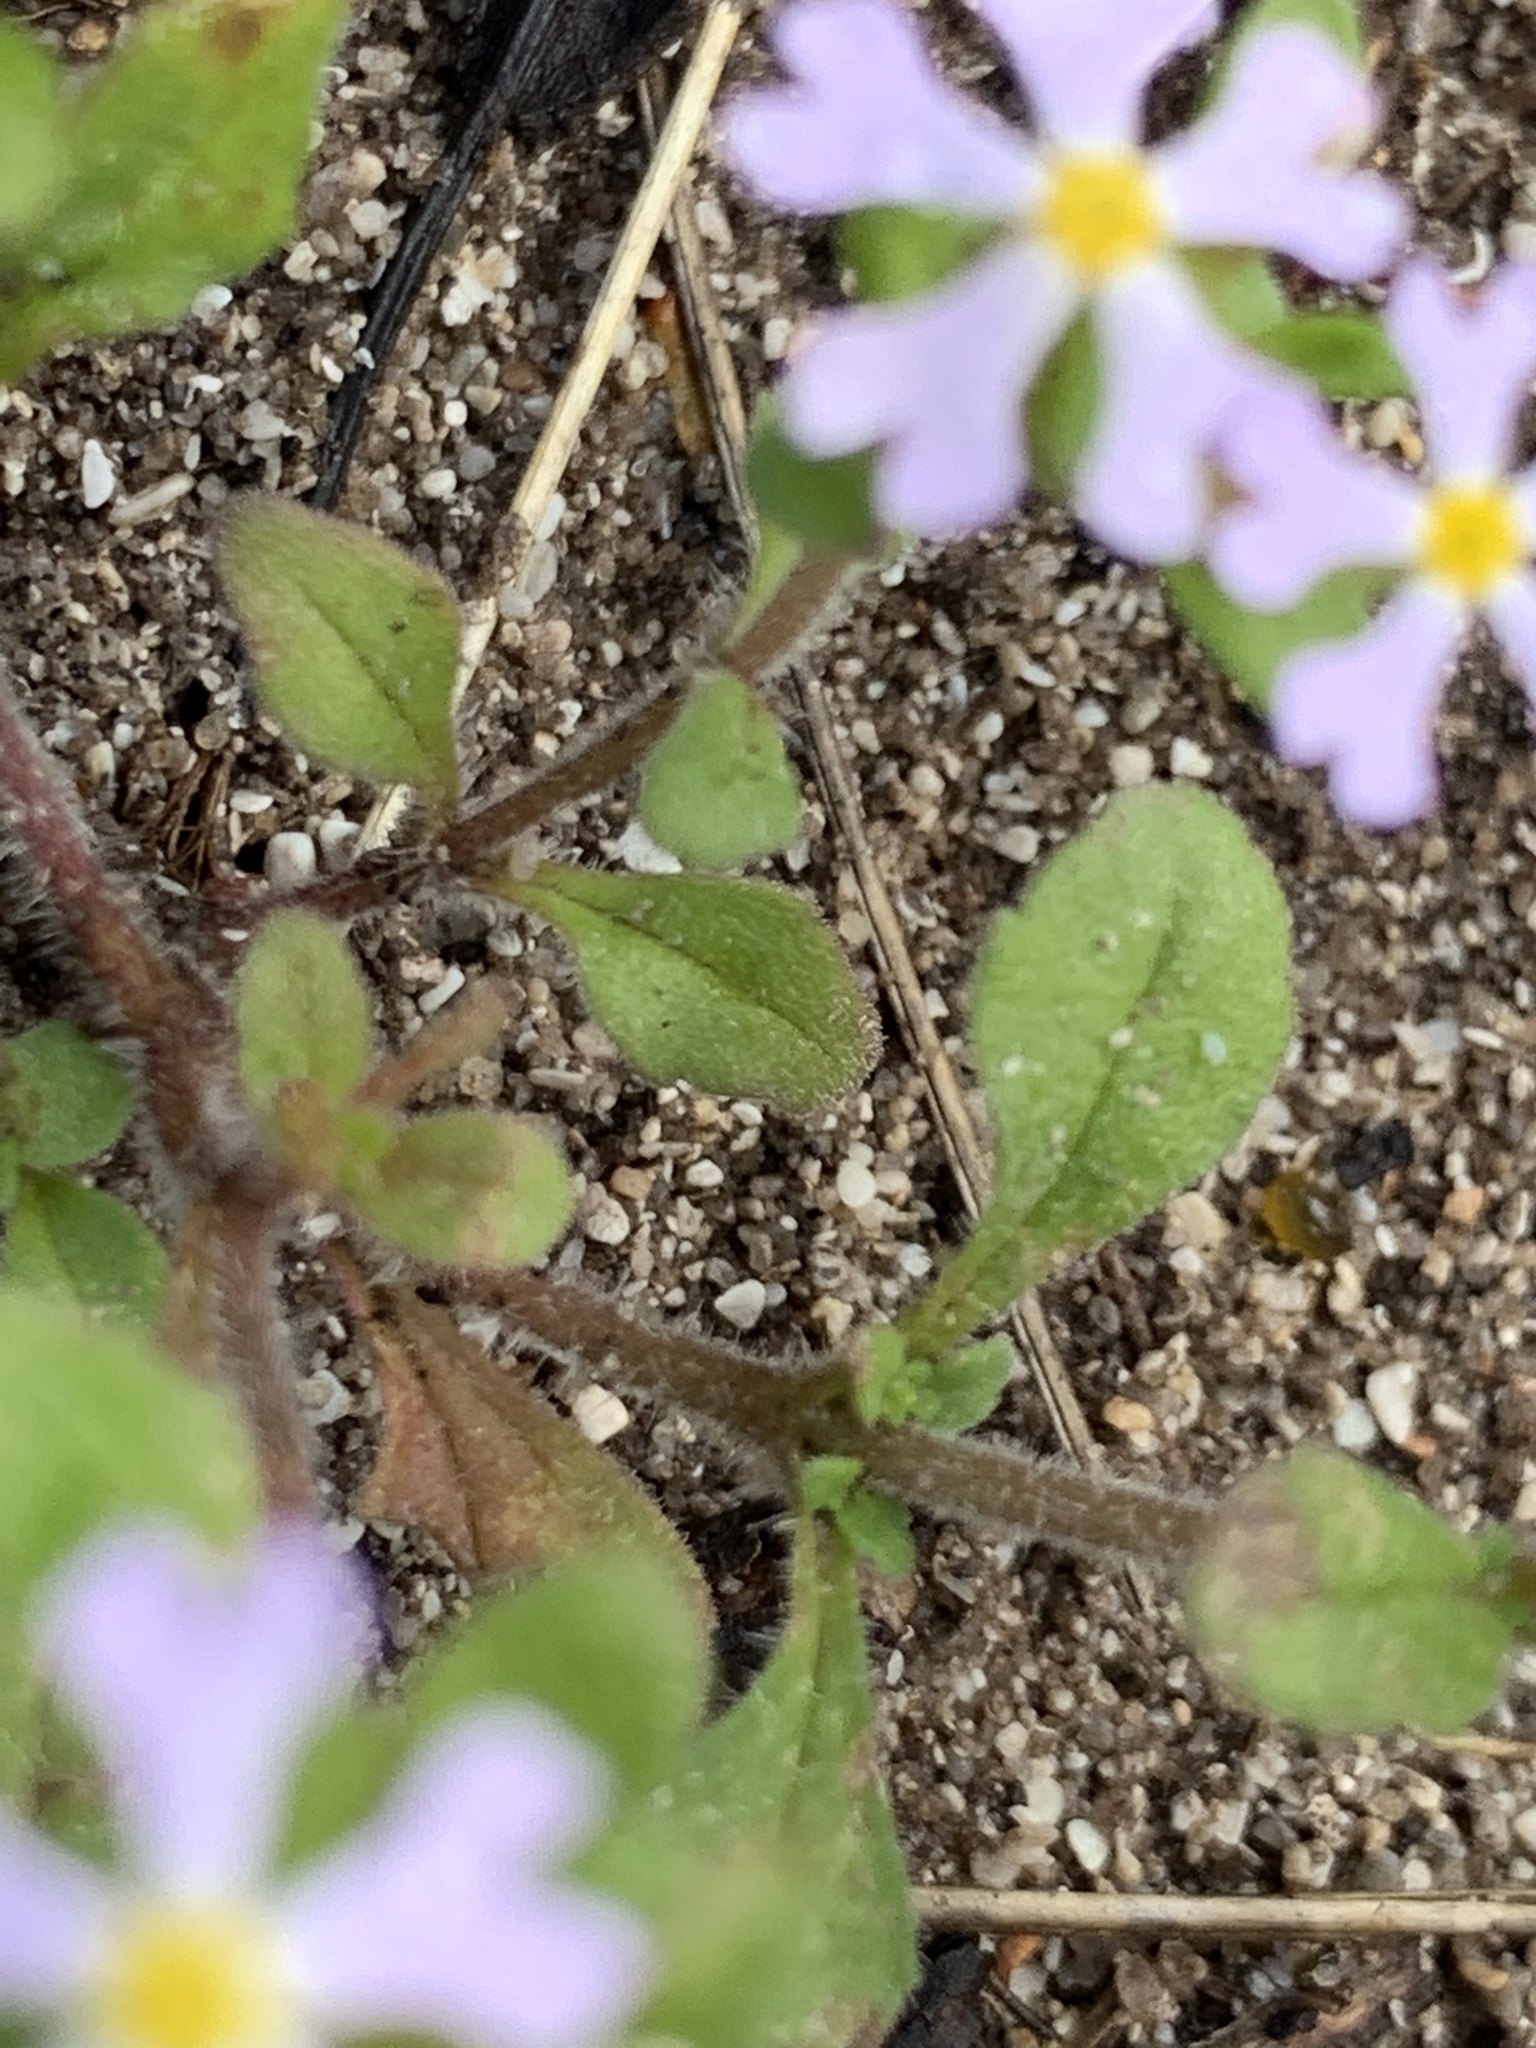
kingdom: Plantae
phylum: Tracheophyta
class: Magnoliopsida
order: Lamiales
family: Scrophulariaceae
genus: Zaluzianskya
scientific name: Zaluzianskya villosa
